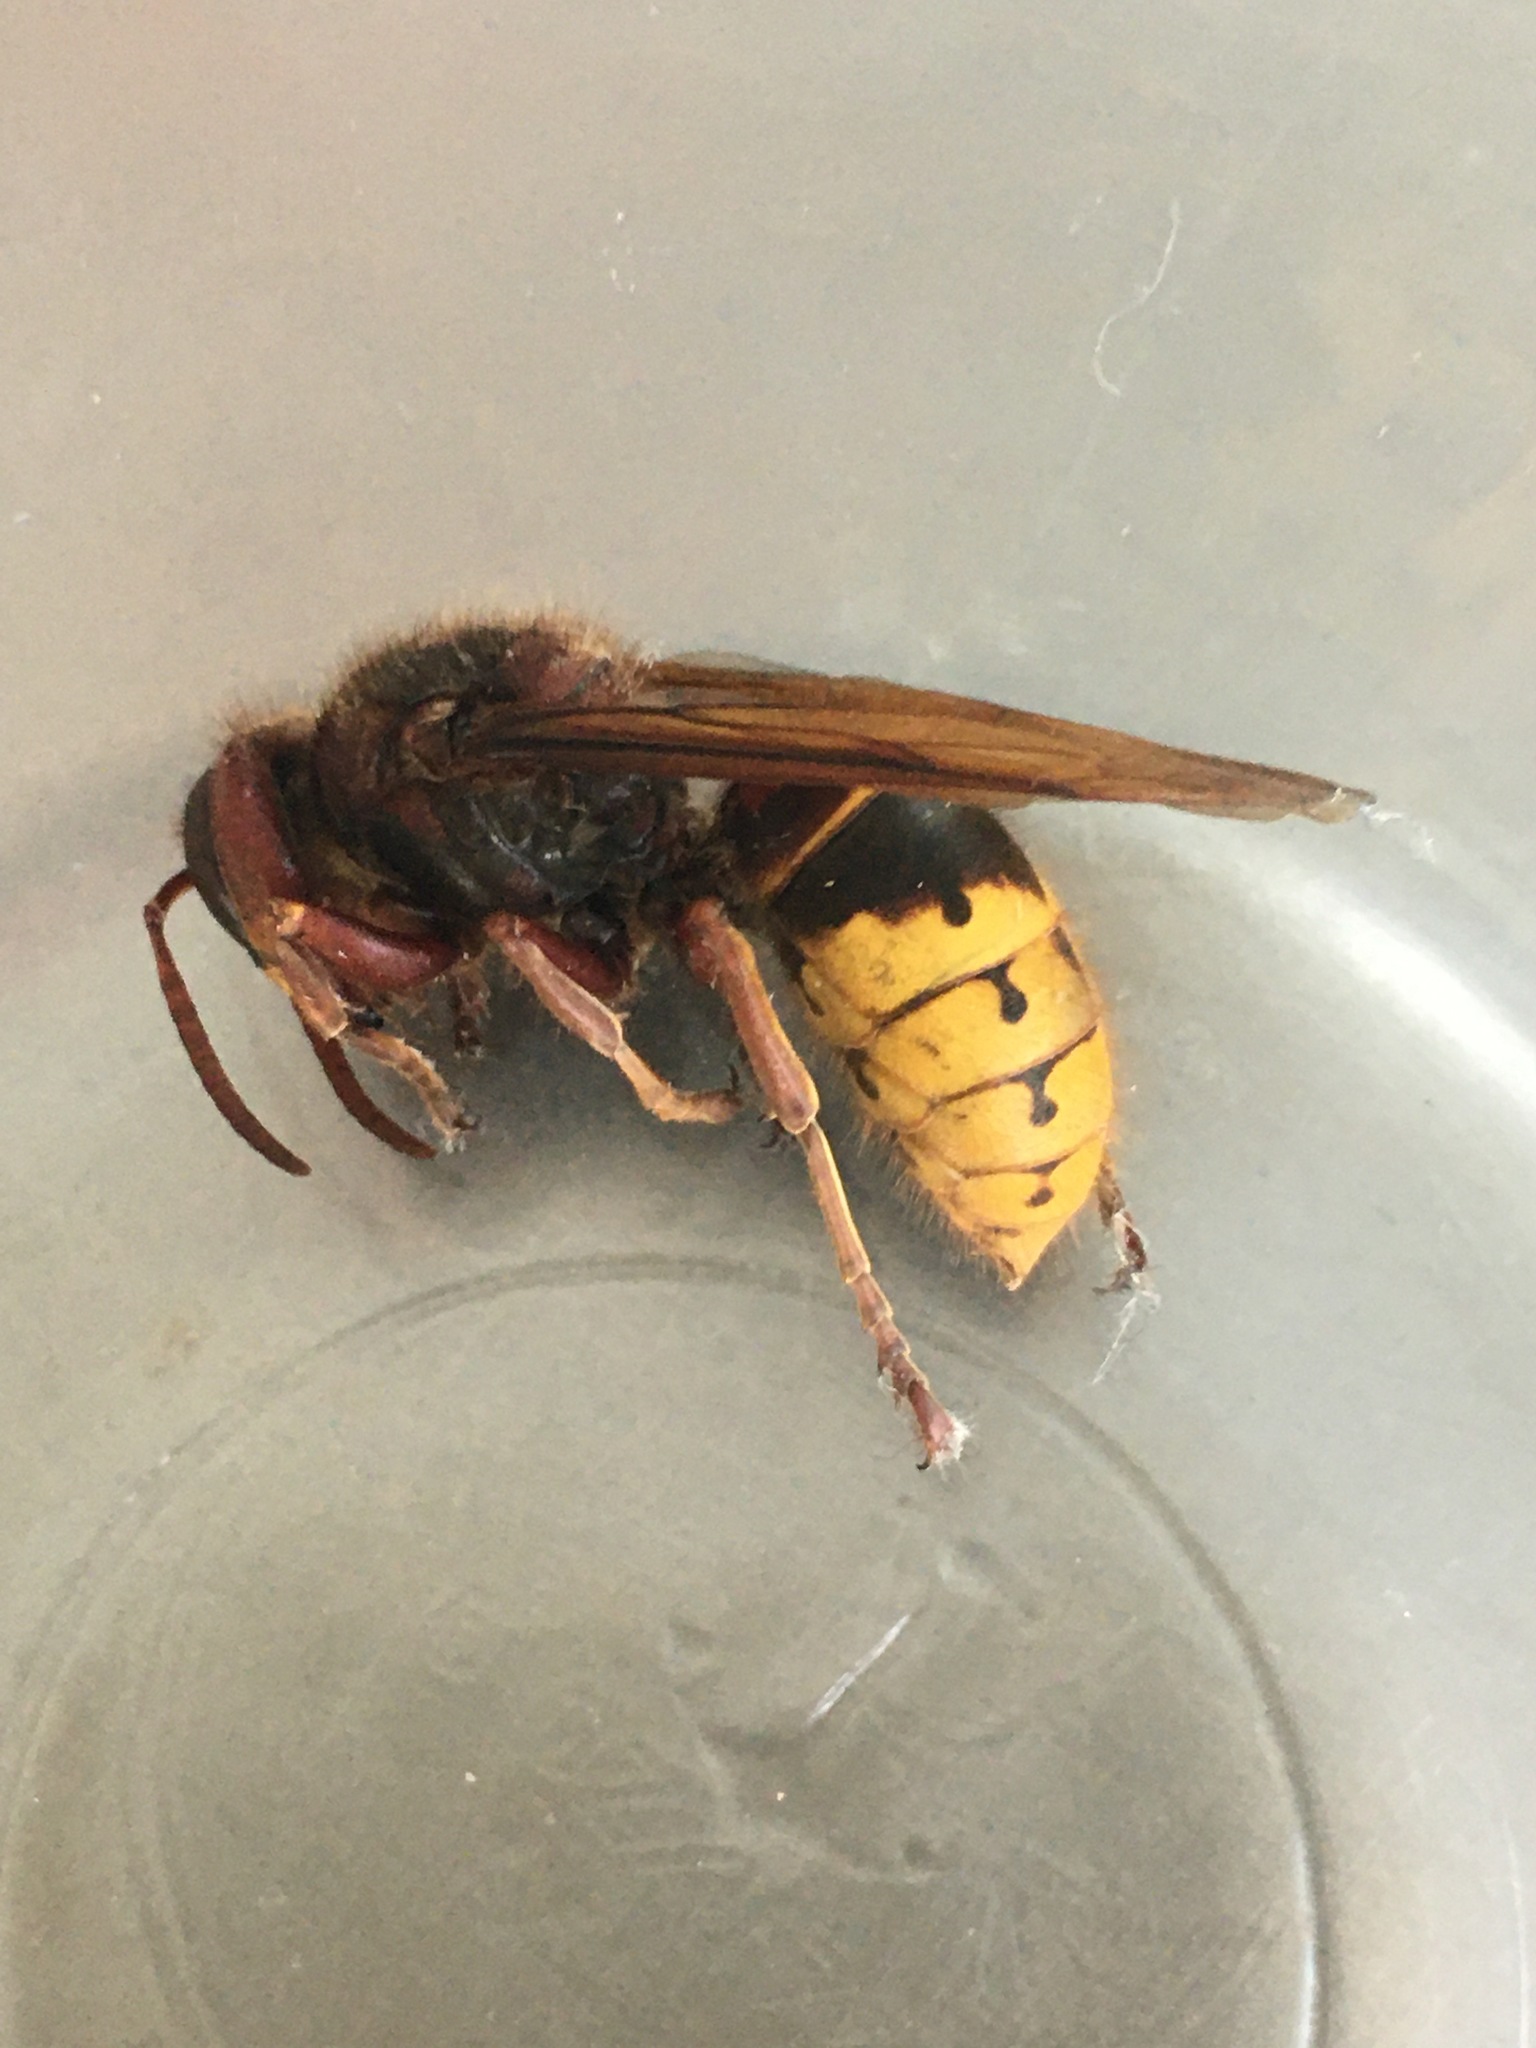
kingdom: Animalia
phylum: Arthropoda
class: Insecta
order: Hymenoptera
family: Vespidae
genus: Vespa
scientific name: Vespa crabro
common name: Hornet
